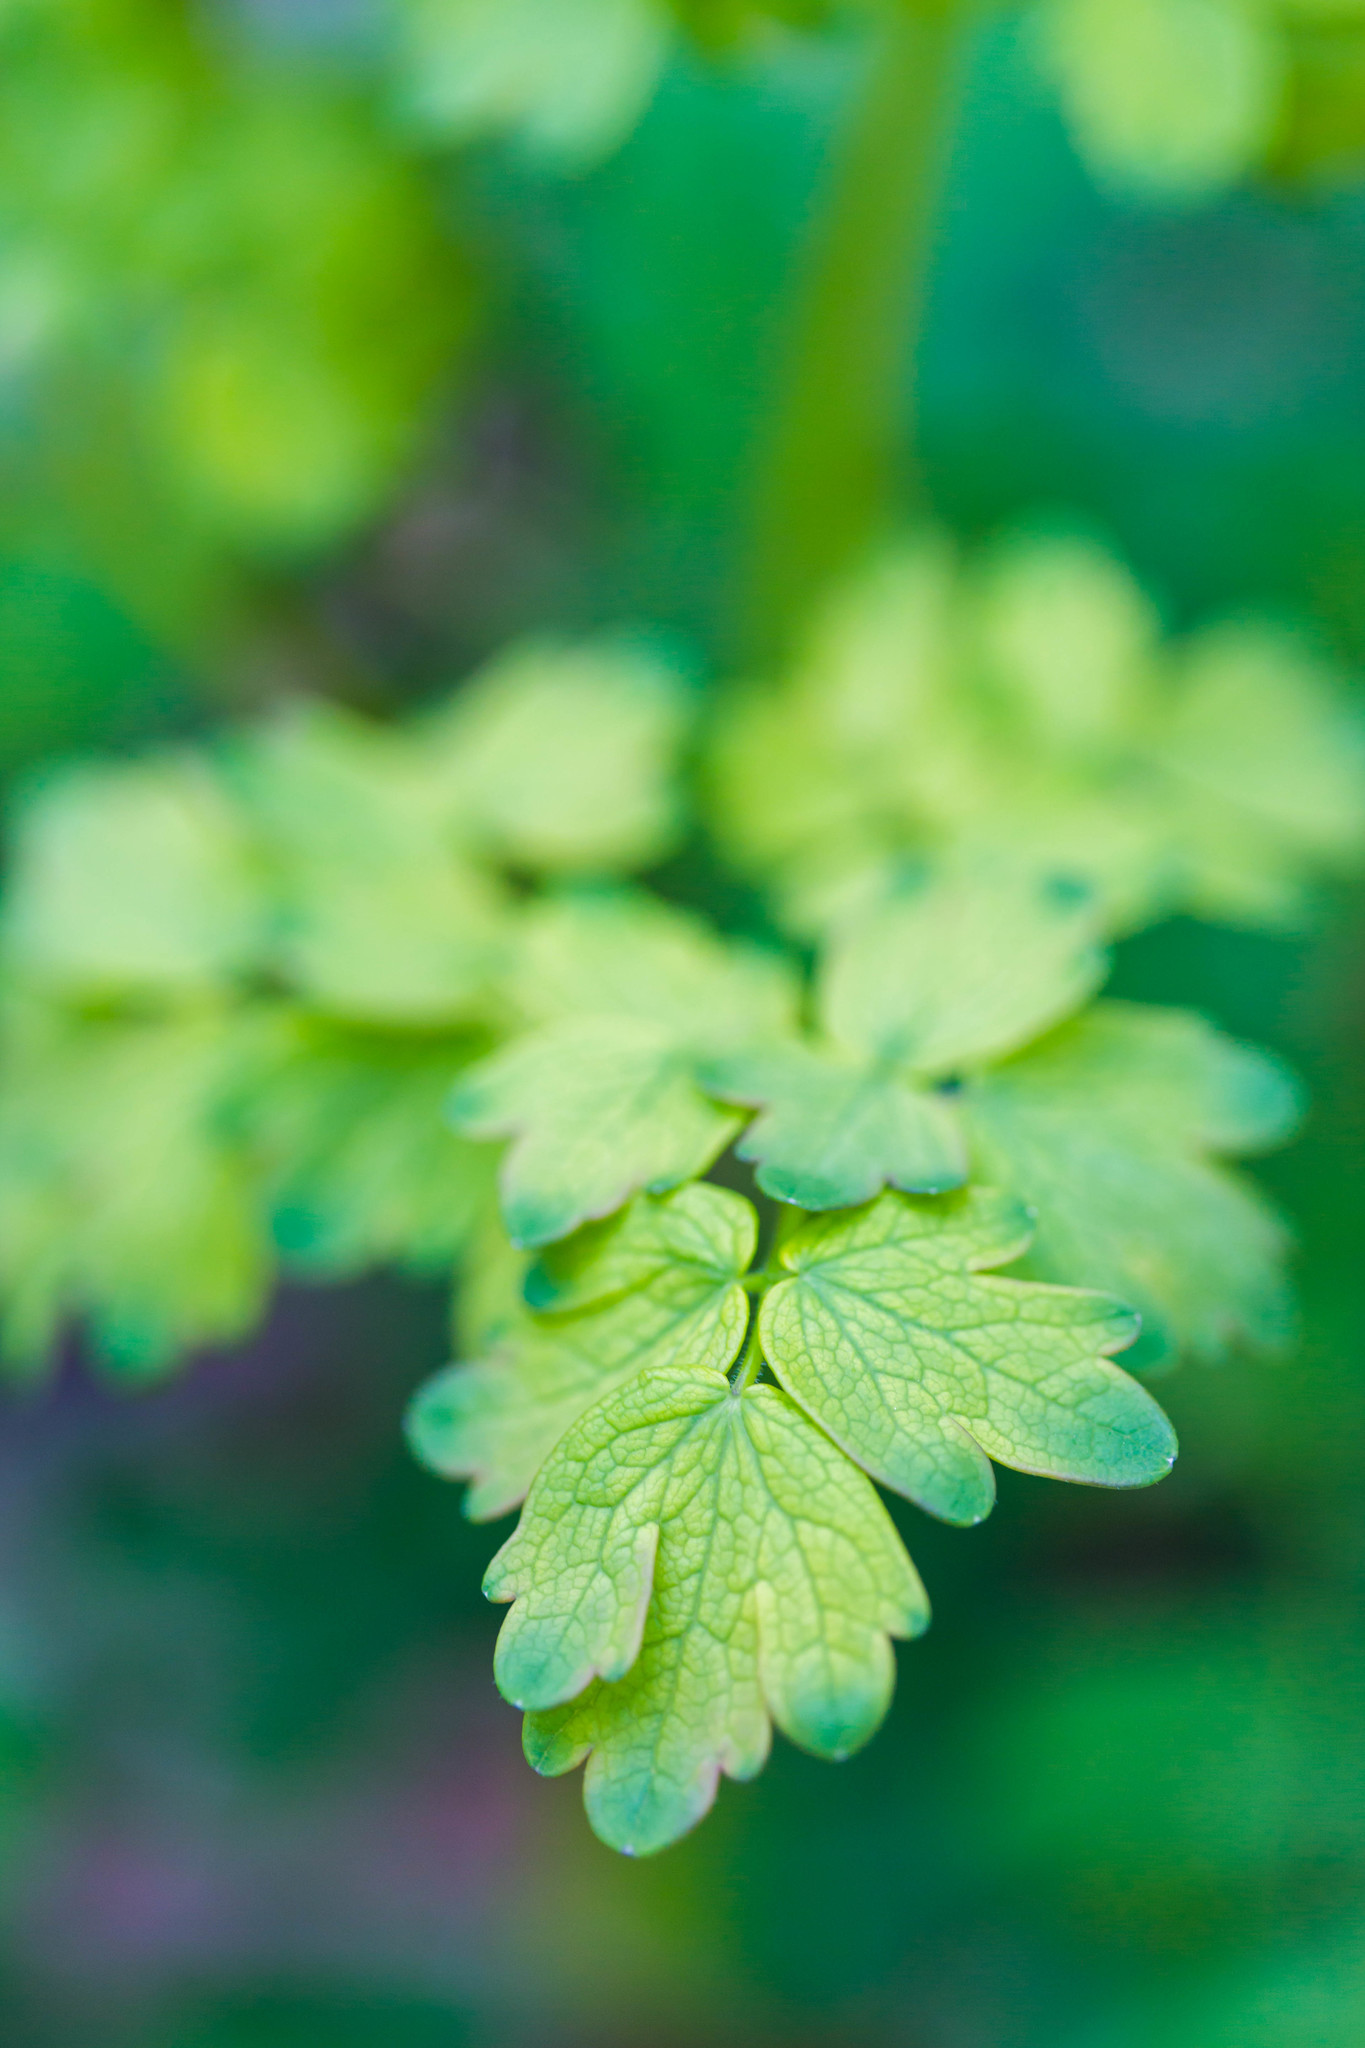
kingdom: Plantae
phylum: Tracheophyta
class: Magnoliopsida
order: Ranunculales
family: Ranunculaceae
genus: Thalictrum
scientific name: Thalictrum dioicum
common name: Early meadow-rue
